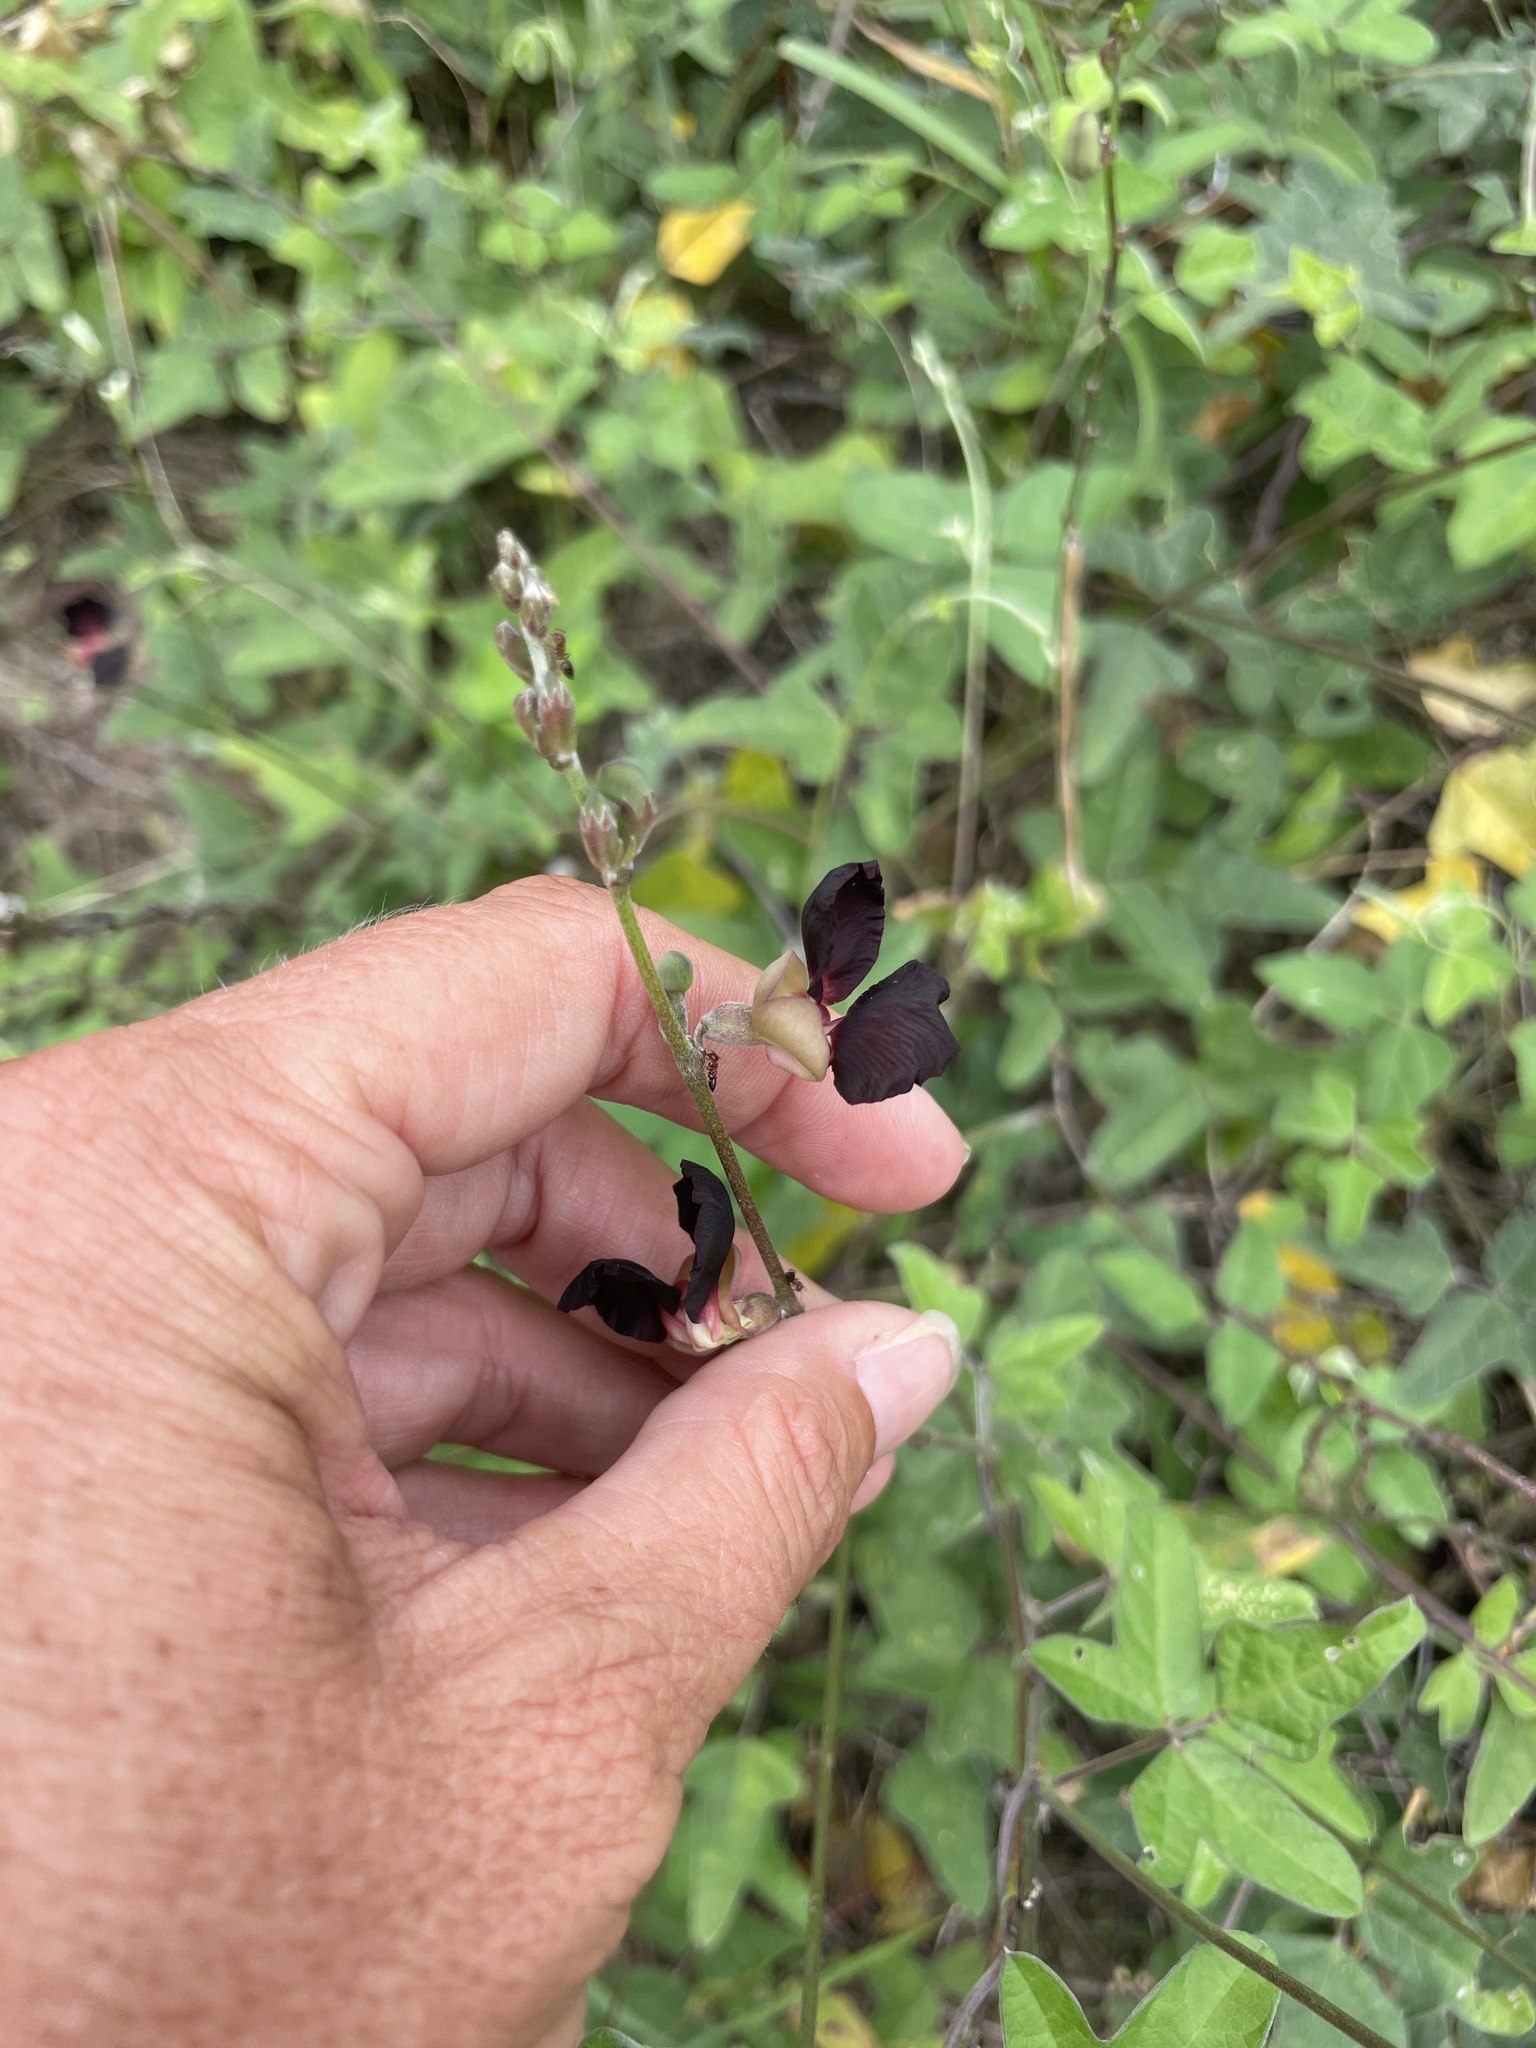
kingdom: Plantae
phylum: Tracheophyta
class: Magnoliopsida
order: Fabales
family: Fabaceae
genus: Macroptilium
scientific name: Macroptilium atropurpureum
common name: Purple bushbean
